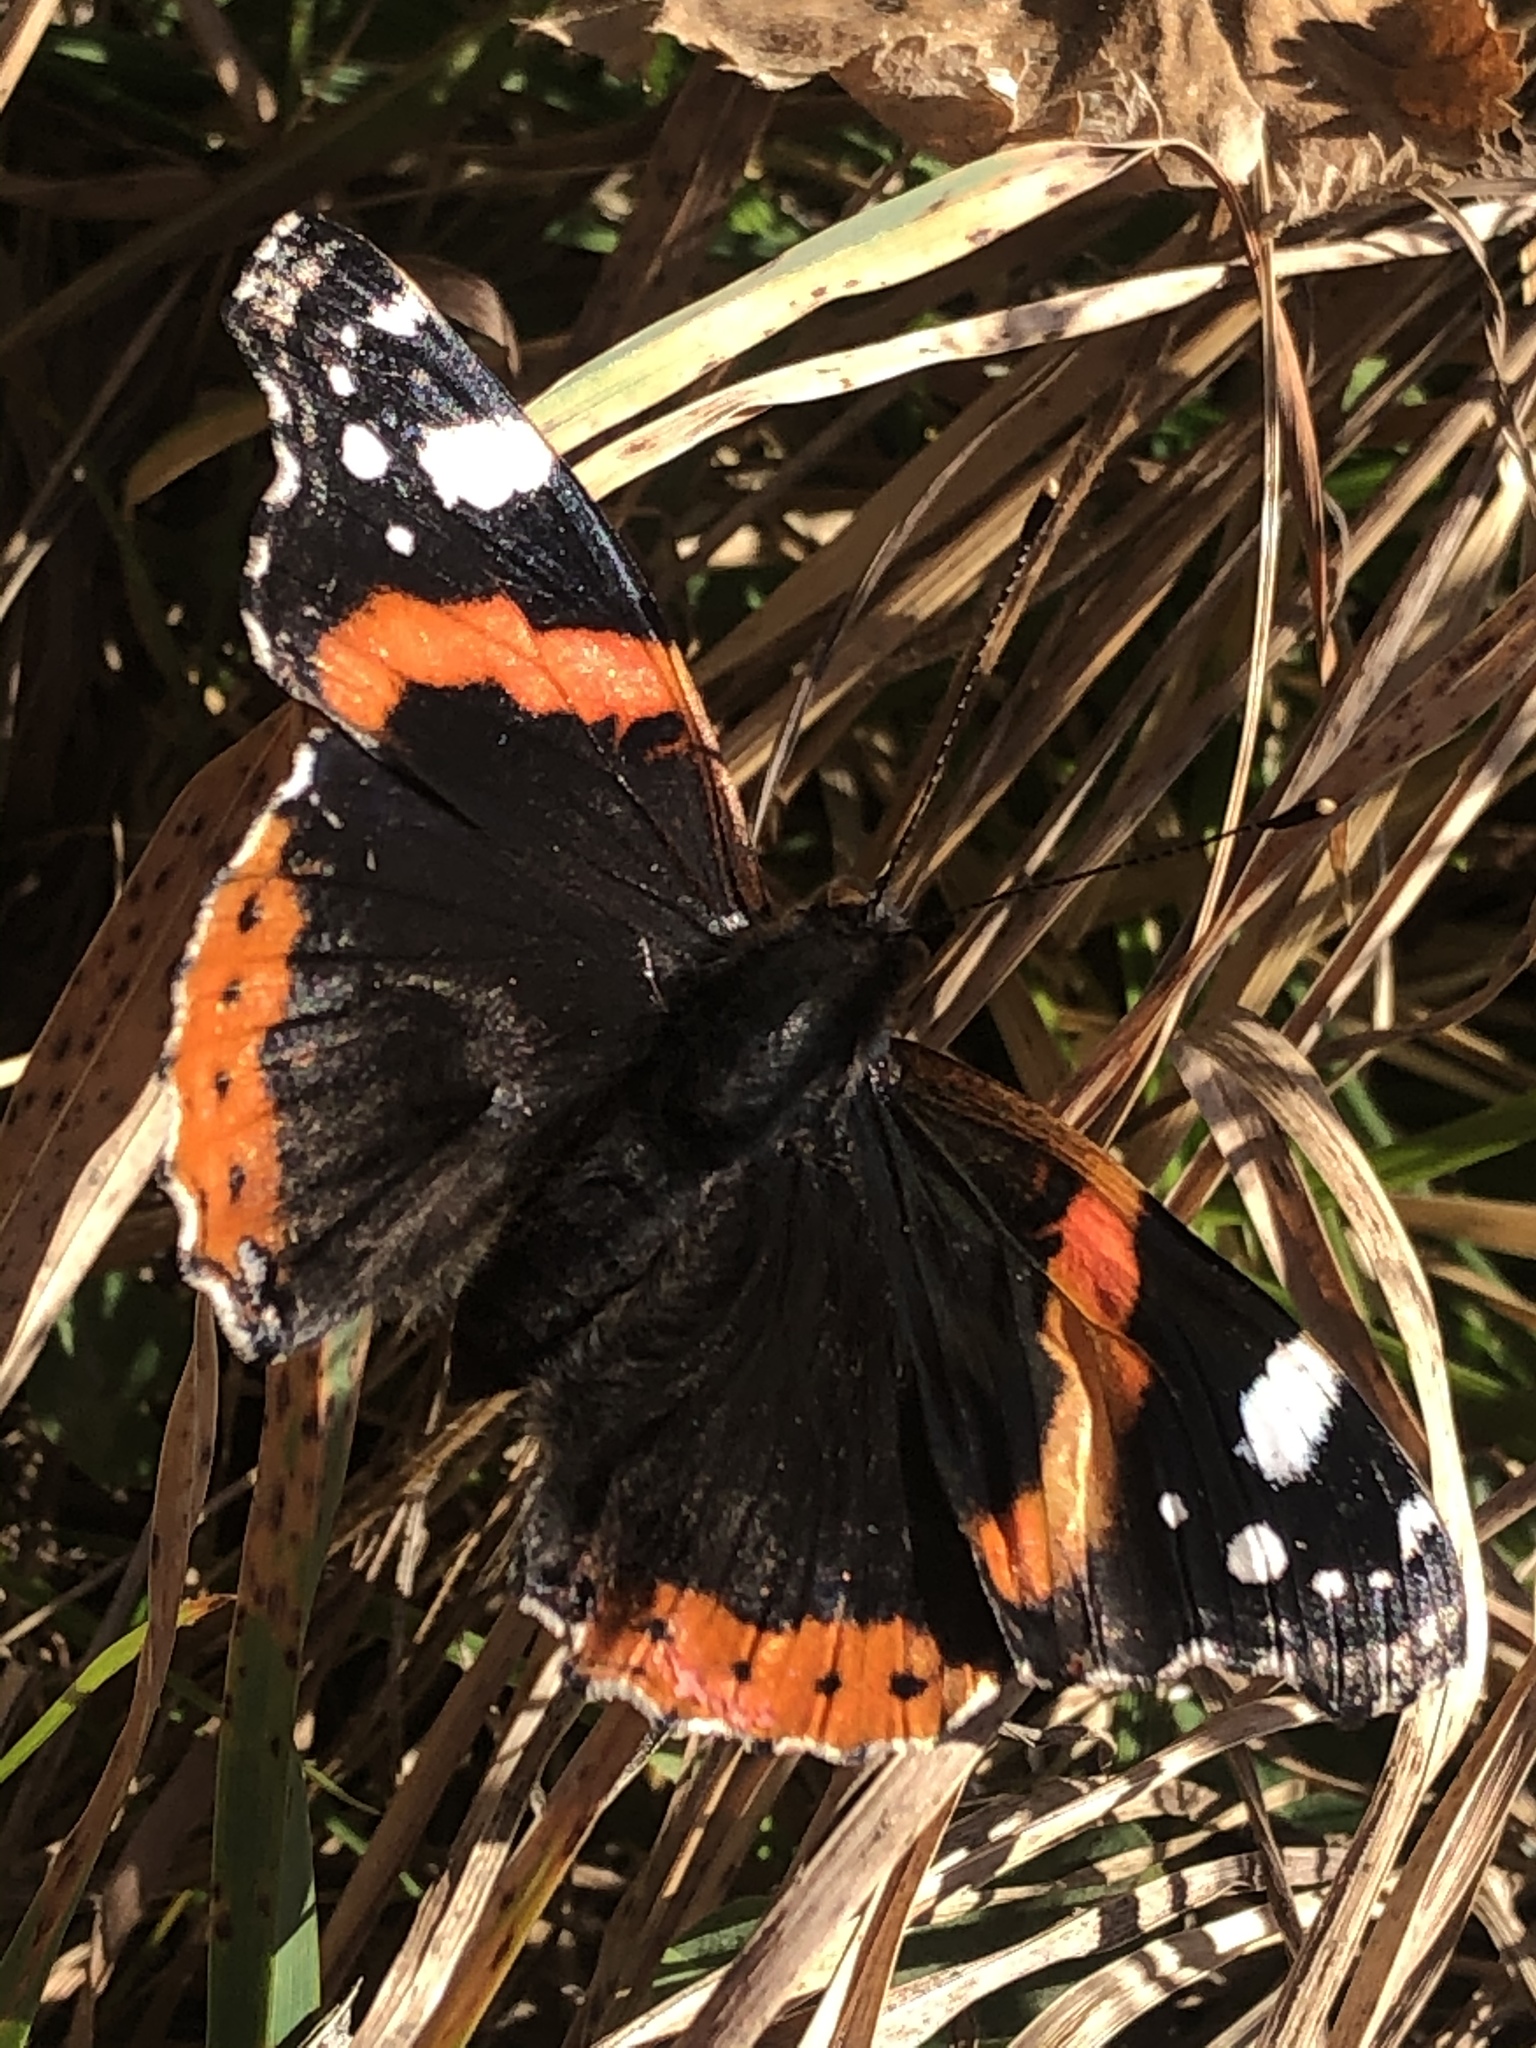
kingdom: Animalia
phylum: Arthropoda
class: Insecta
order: Lepidoptera
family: Nymphalidae
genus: Vanessa
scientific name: Vanessa atalanta
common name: Red admiral
